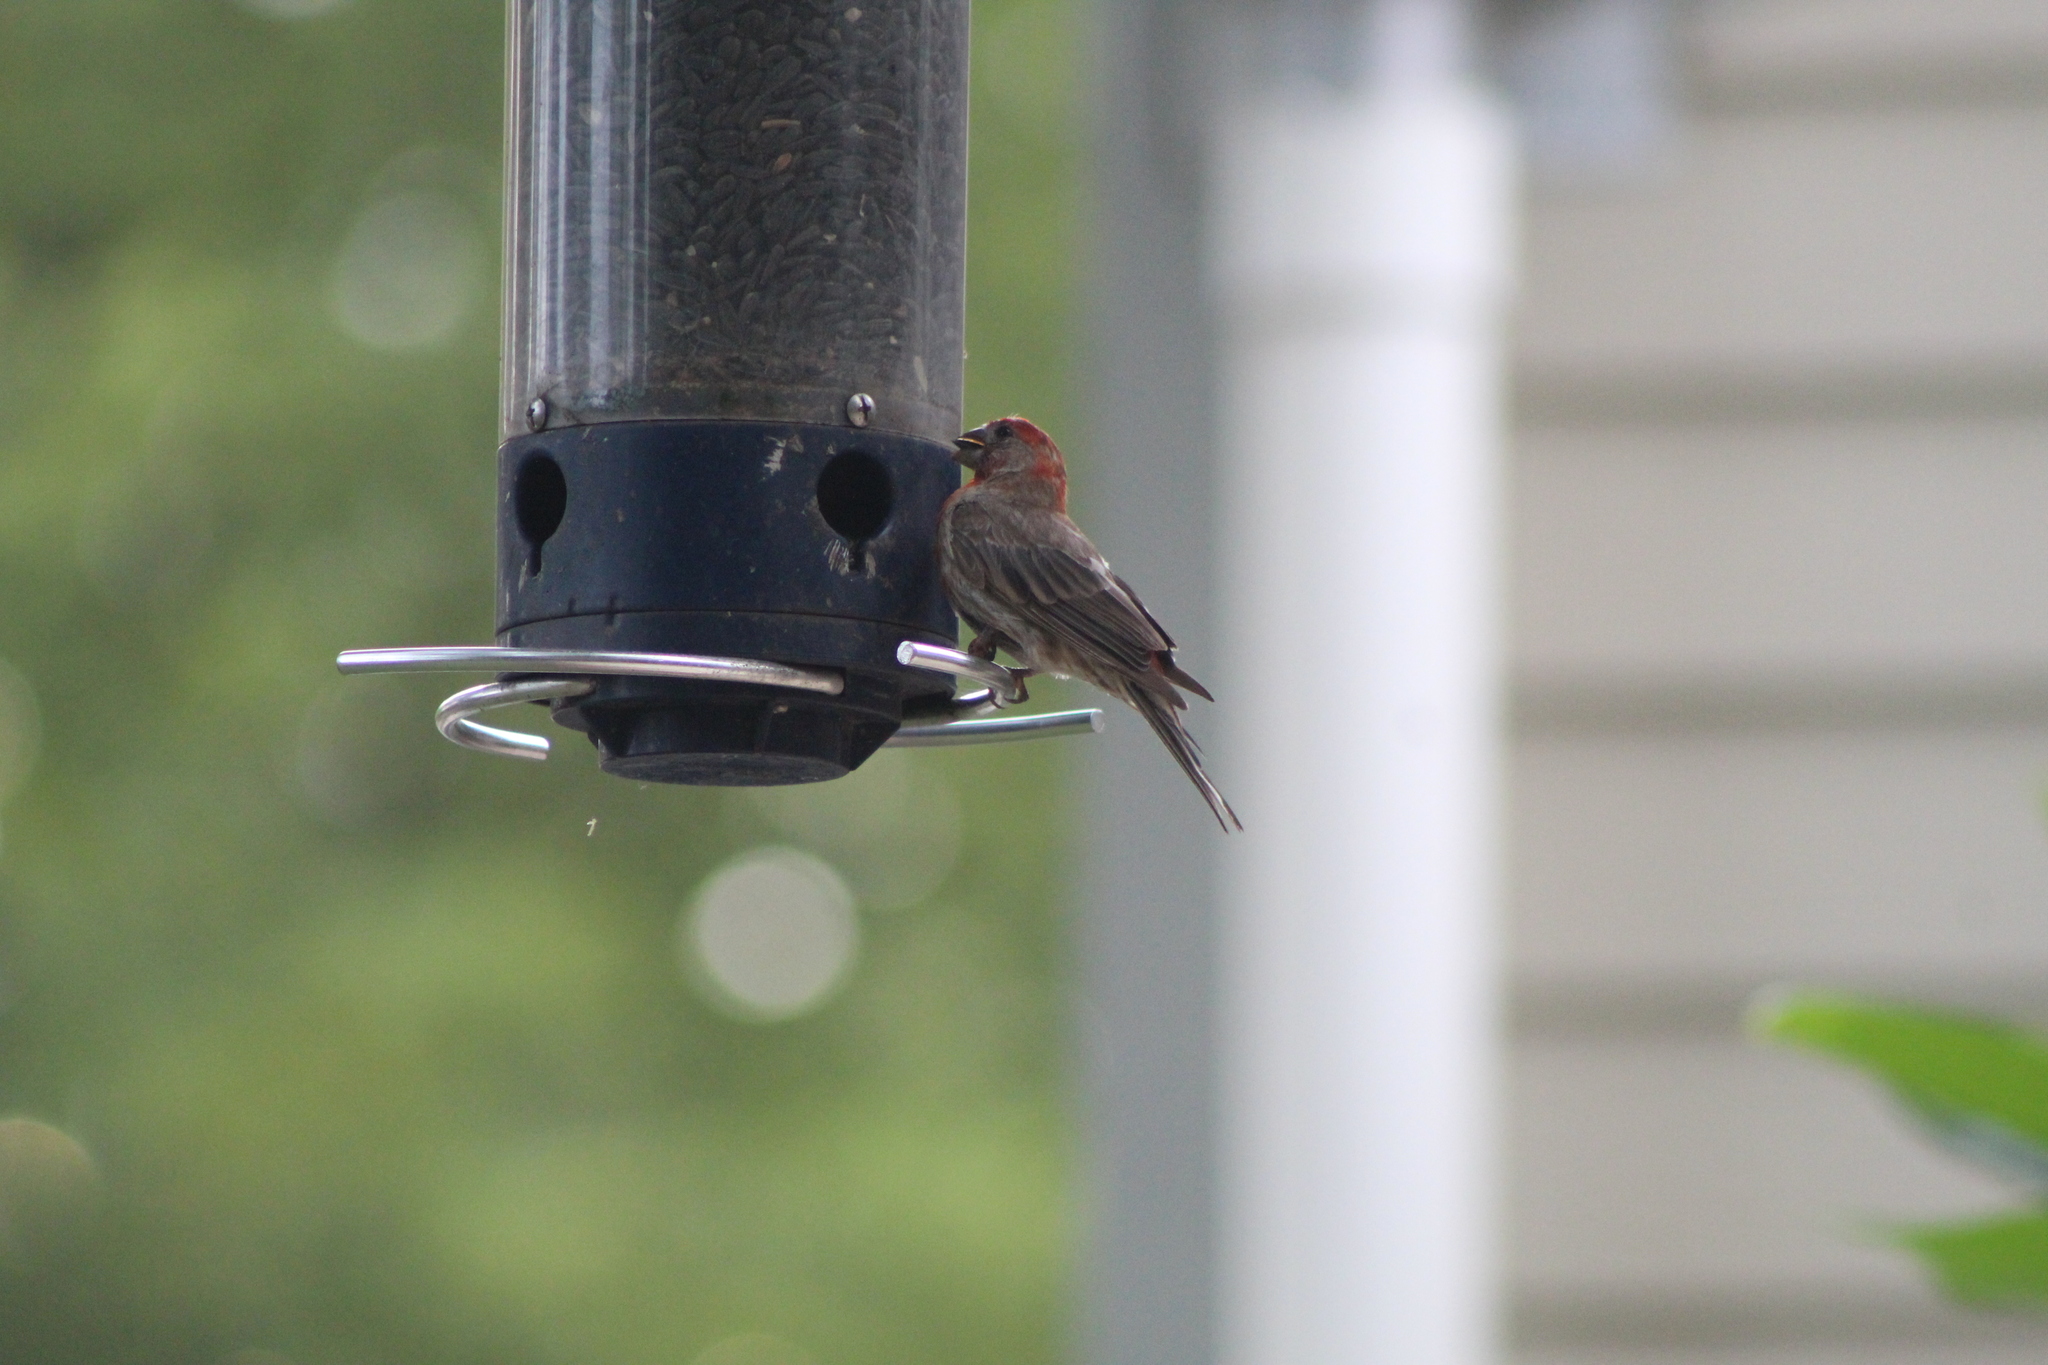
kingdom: Animalia
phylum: Chordata
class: Aves
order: Passeriformes
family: Fringillidae
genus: Haemorhous
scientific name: Haemorhous mexicanus
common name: House finch
